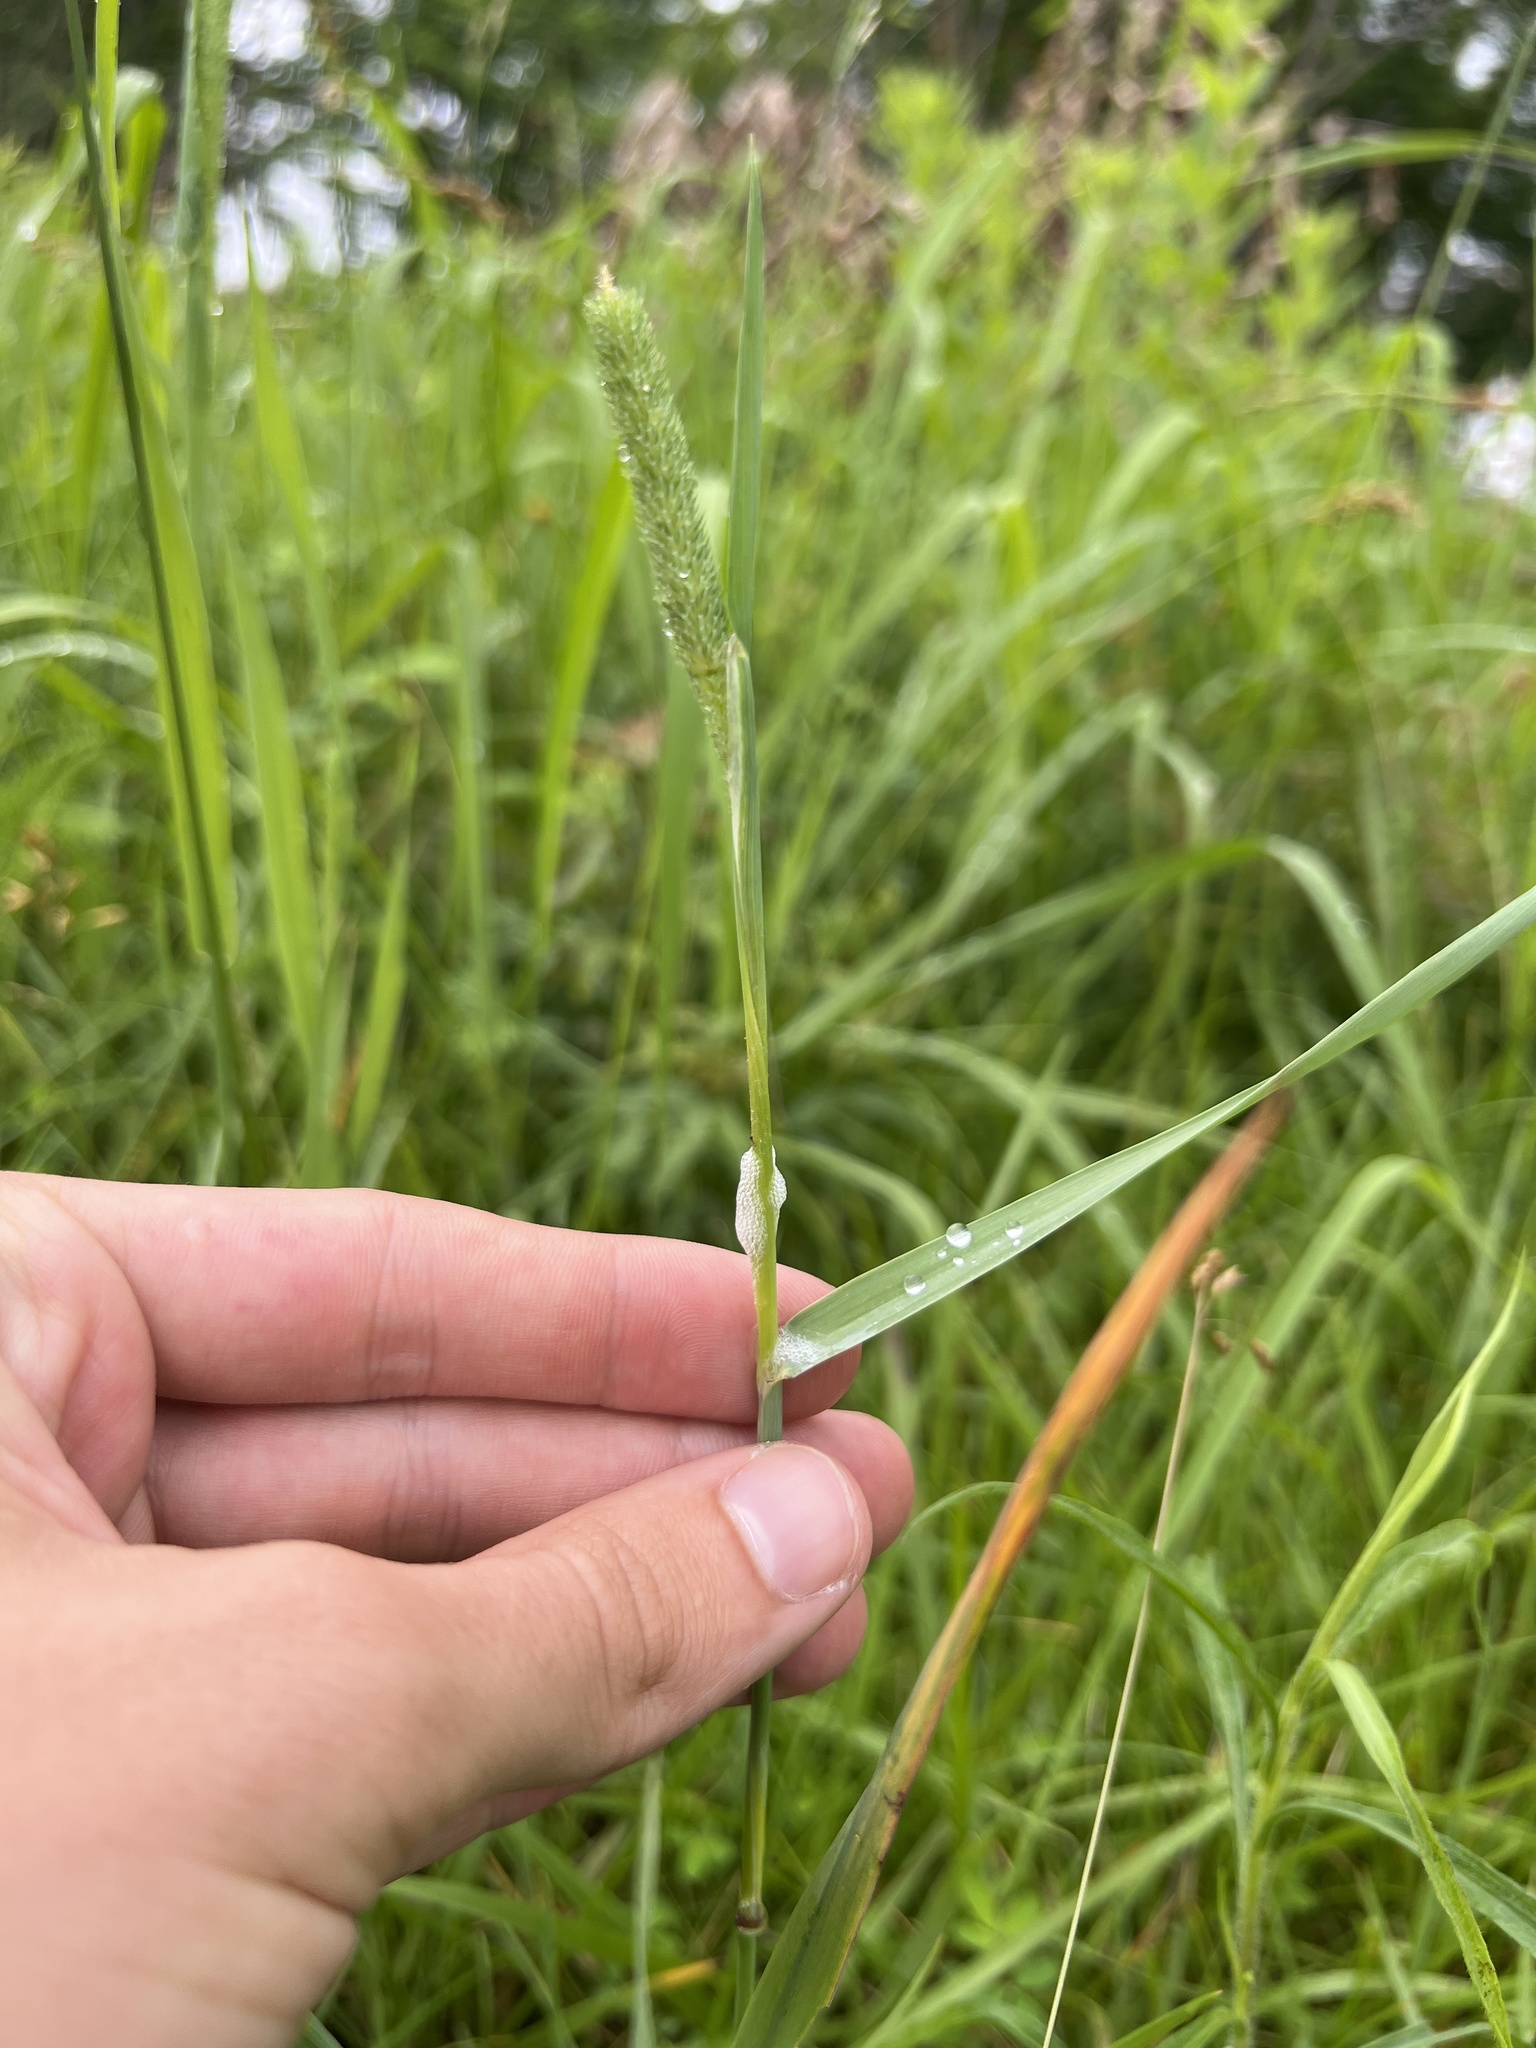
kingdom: Plantae
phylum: Tracheophyta
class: Liliopsida
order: Poales
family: Poaceae
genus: Phleum
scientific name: Phleum pratense
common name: Timothy grass
